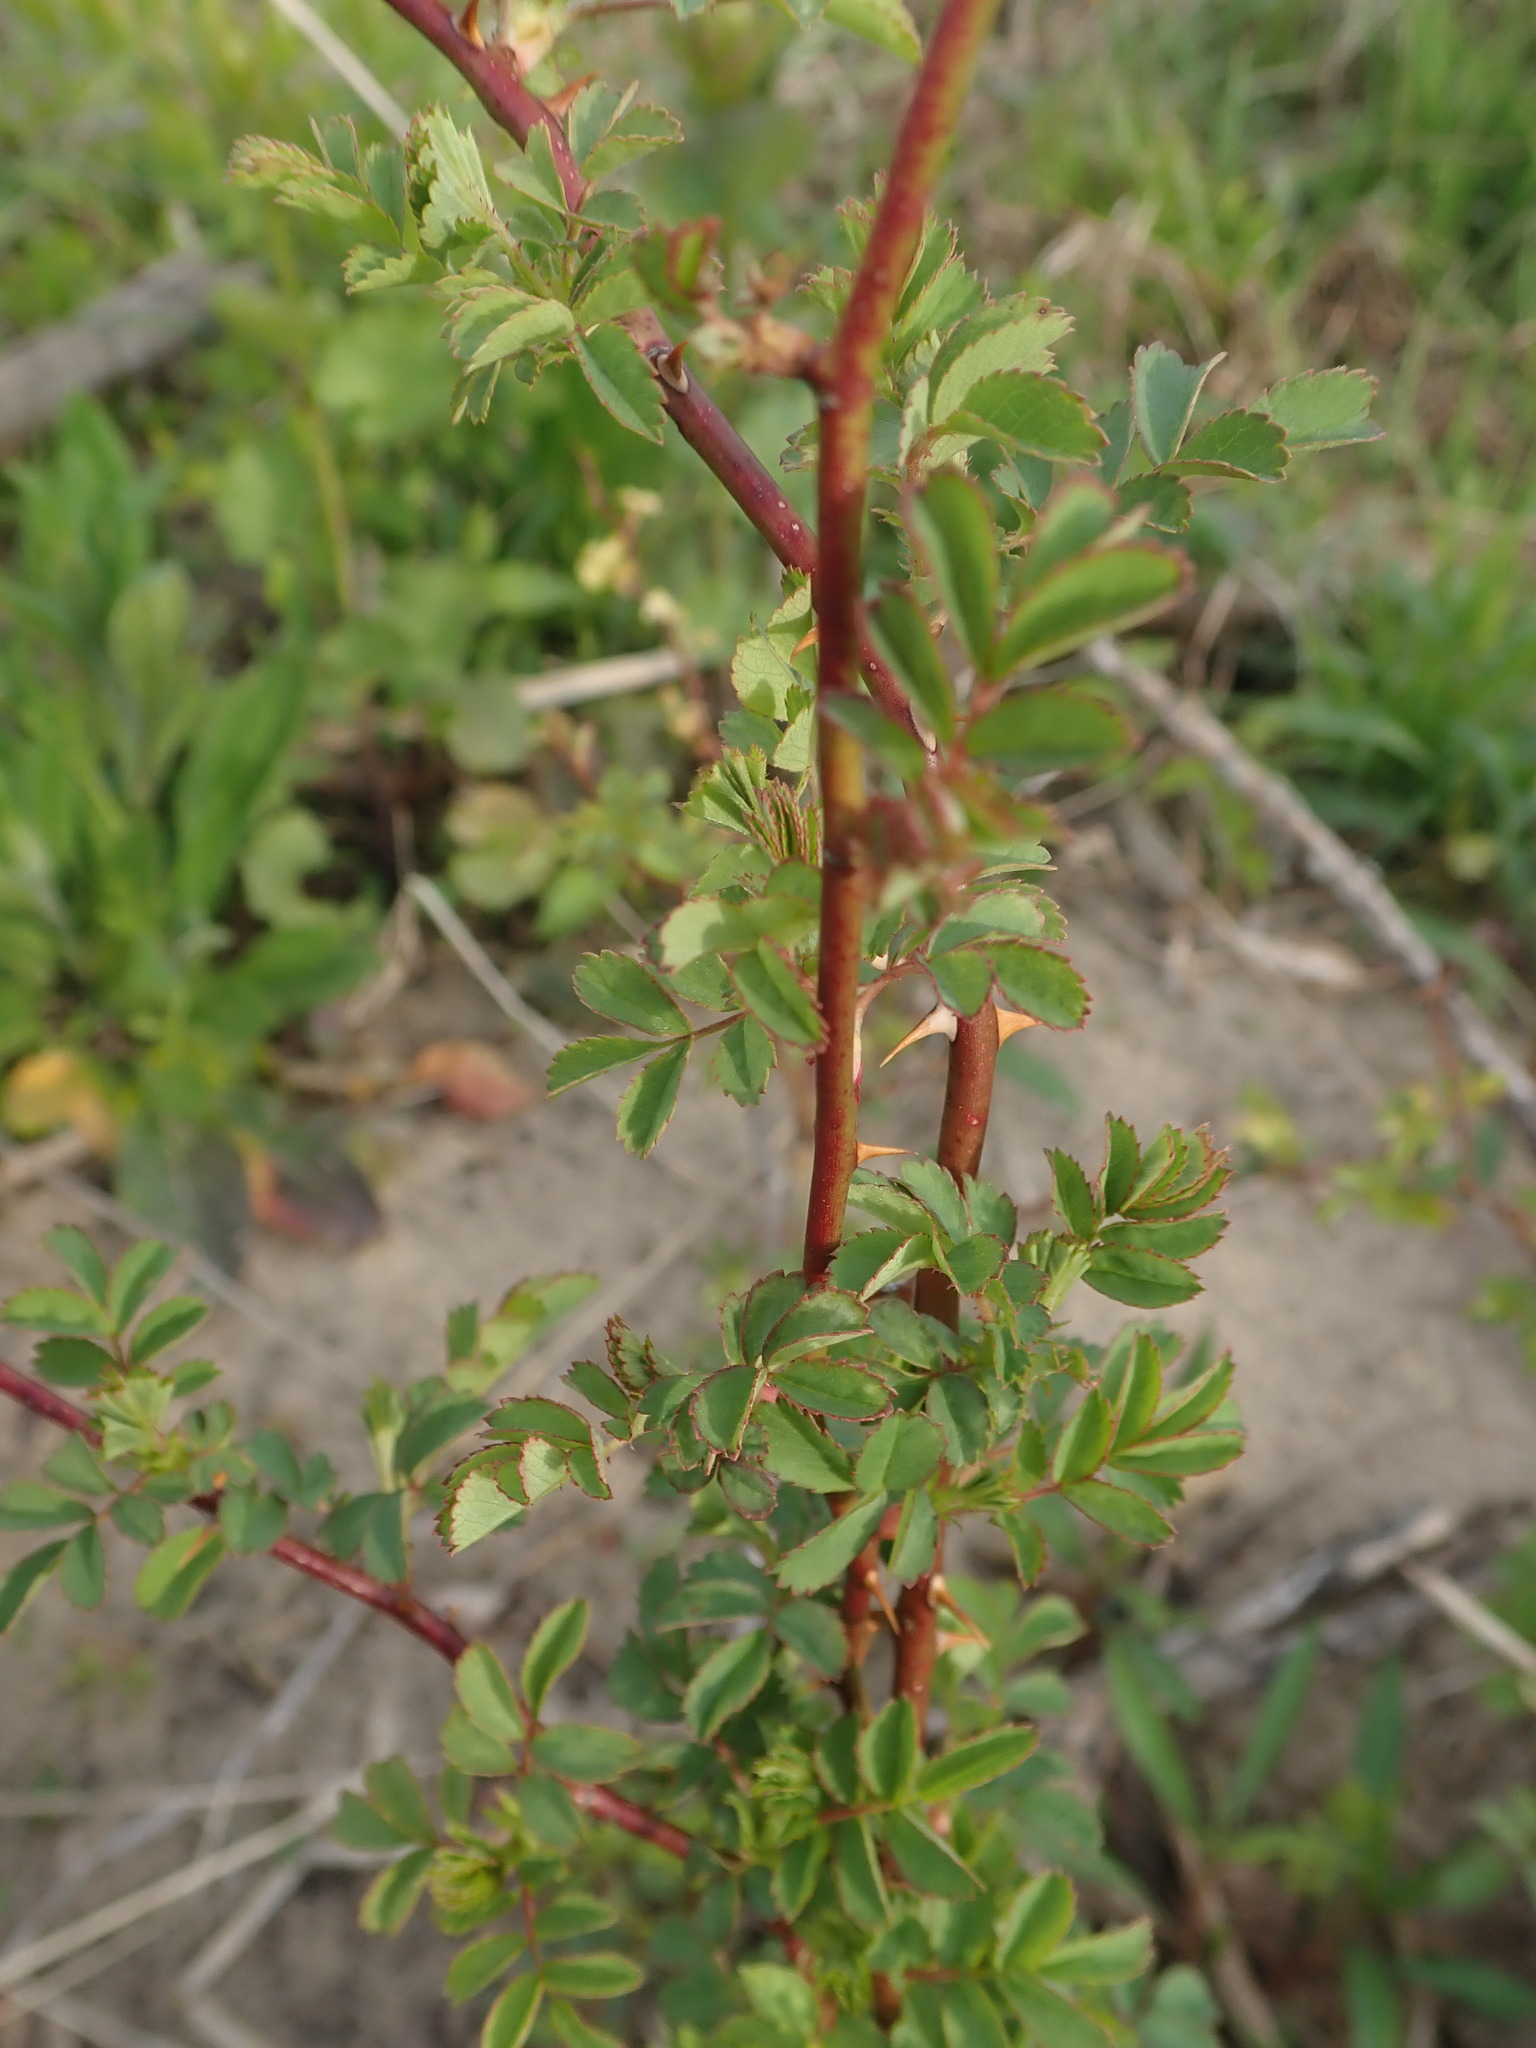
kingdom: Plantae
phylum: Tracheophyta
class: Magnoliopsida
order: Rosales
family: Rosaceae
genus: Rosa
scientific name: Rosa multiflora
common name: Multiflora rose
